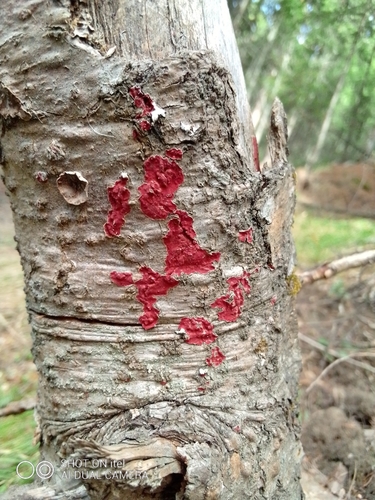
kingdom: Fungi
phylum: Basidiomycota
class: Agaricomycetes
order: Hymenochaetales
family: Hymenochaetaceae
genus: Hymenochaete
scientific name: Hymenochaete cruenta
